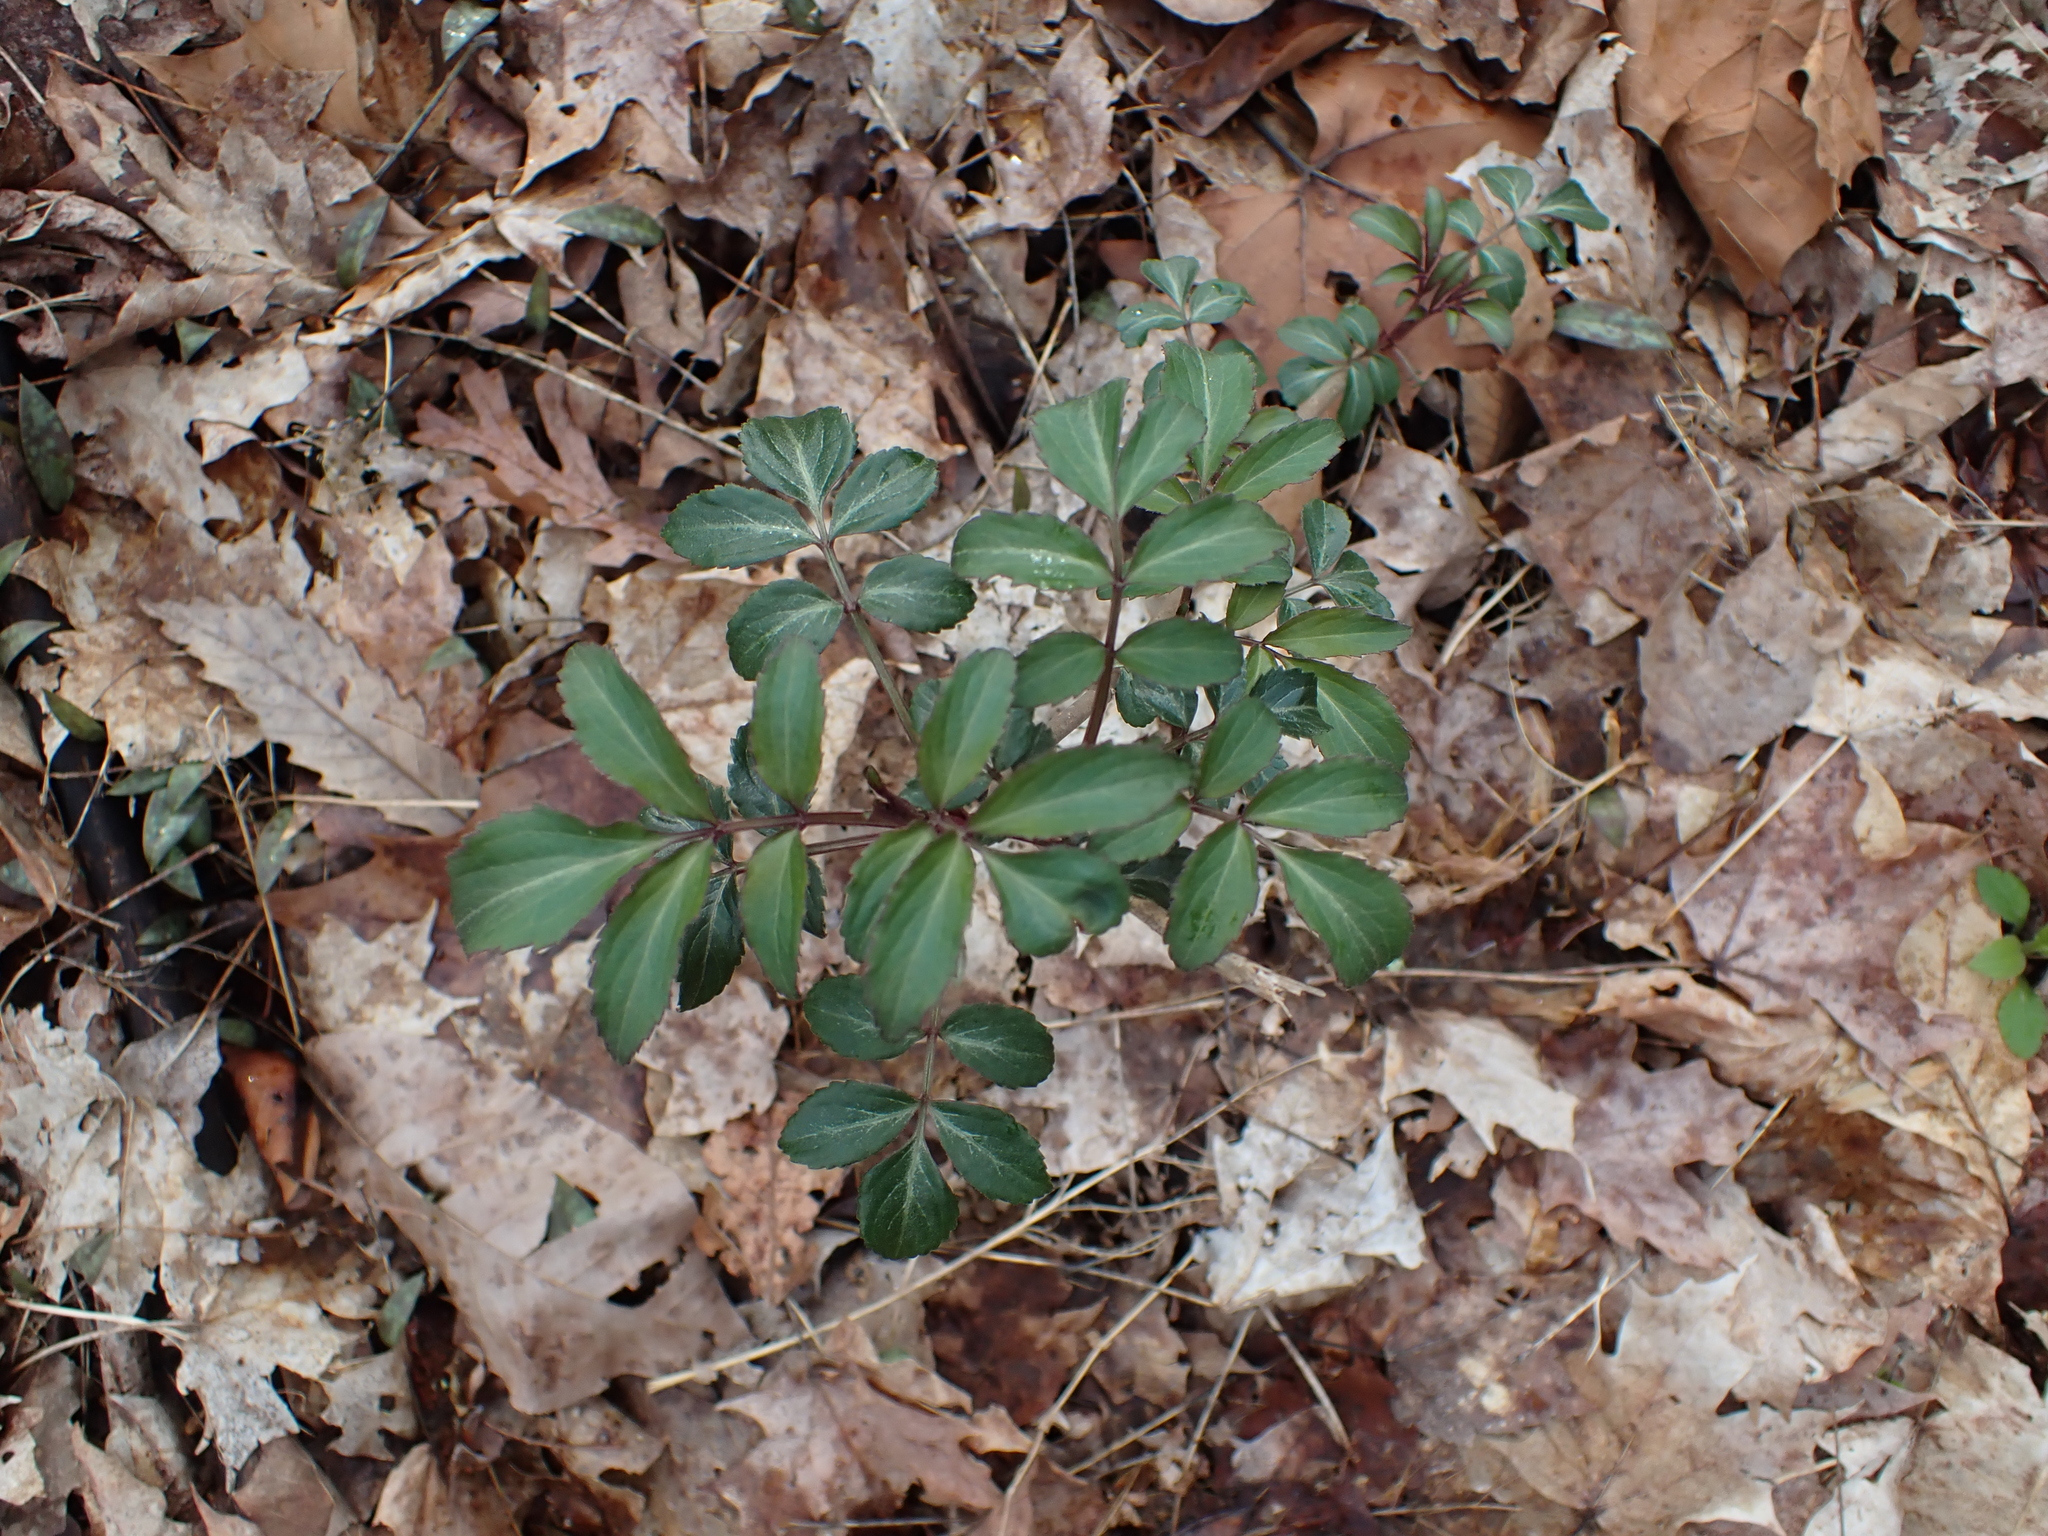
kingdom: Plantae
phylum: Tracheophyta
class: Magnoliopsida
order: Dipsacales
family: Viburnaceae
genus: Sambucus
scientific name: Sambucus canadensis
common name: American elder
